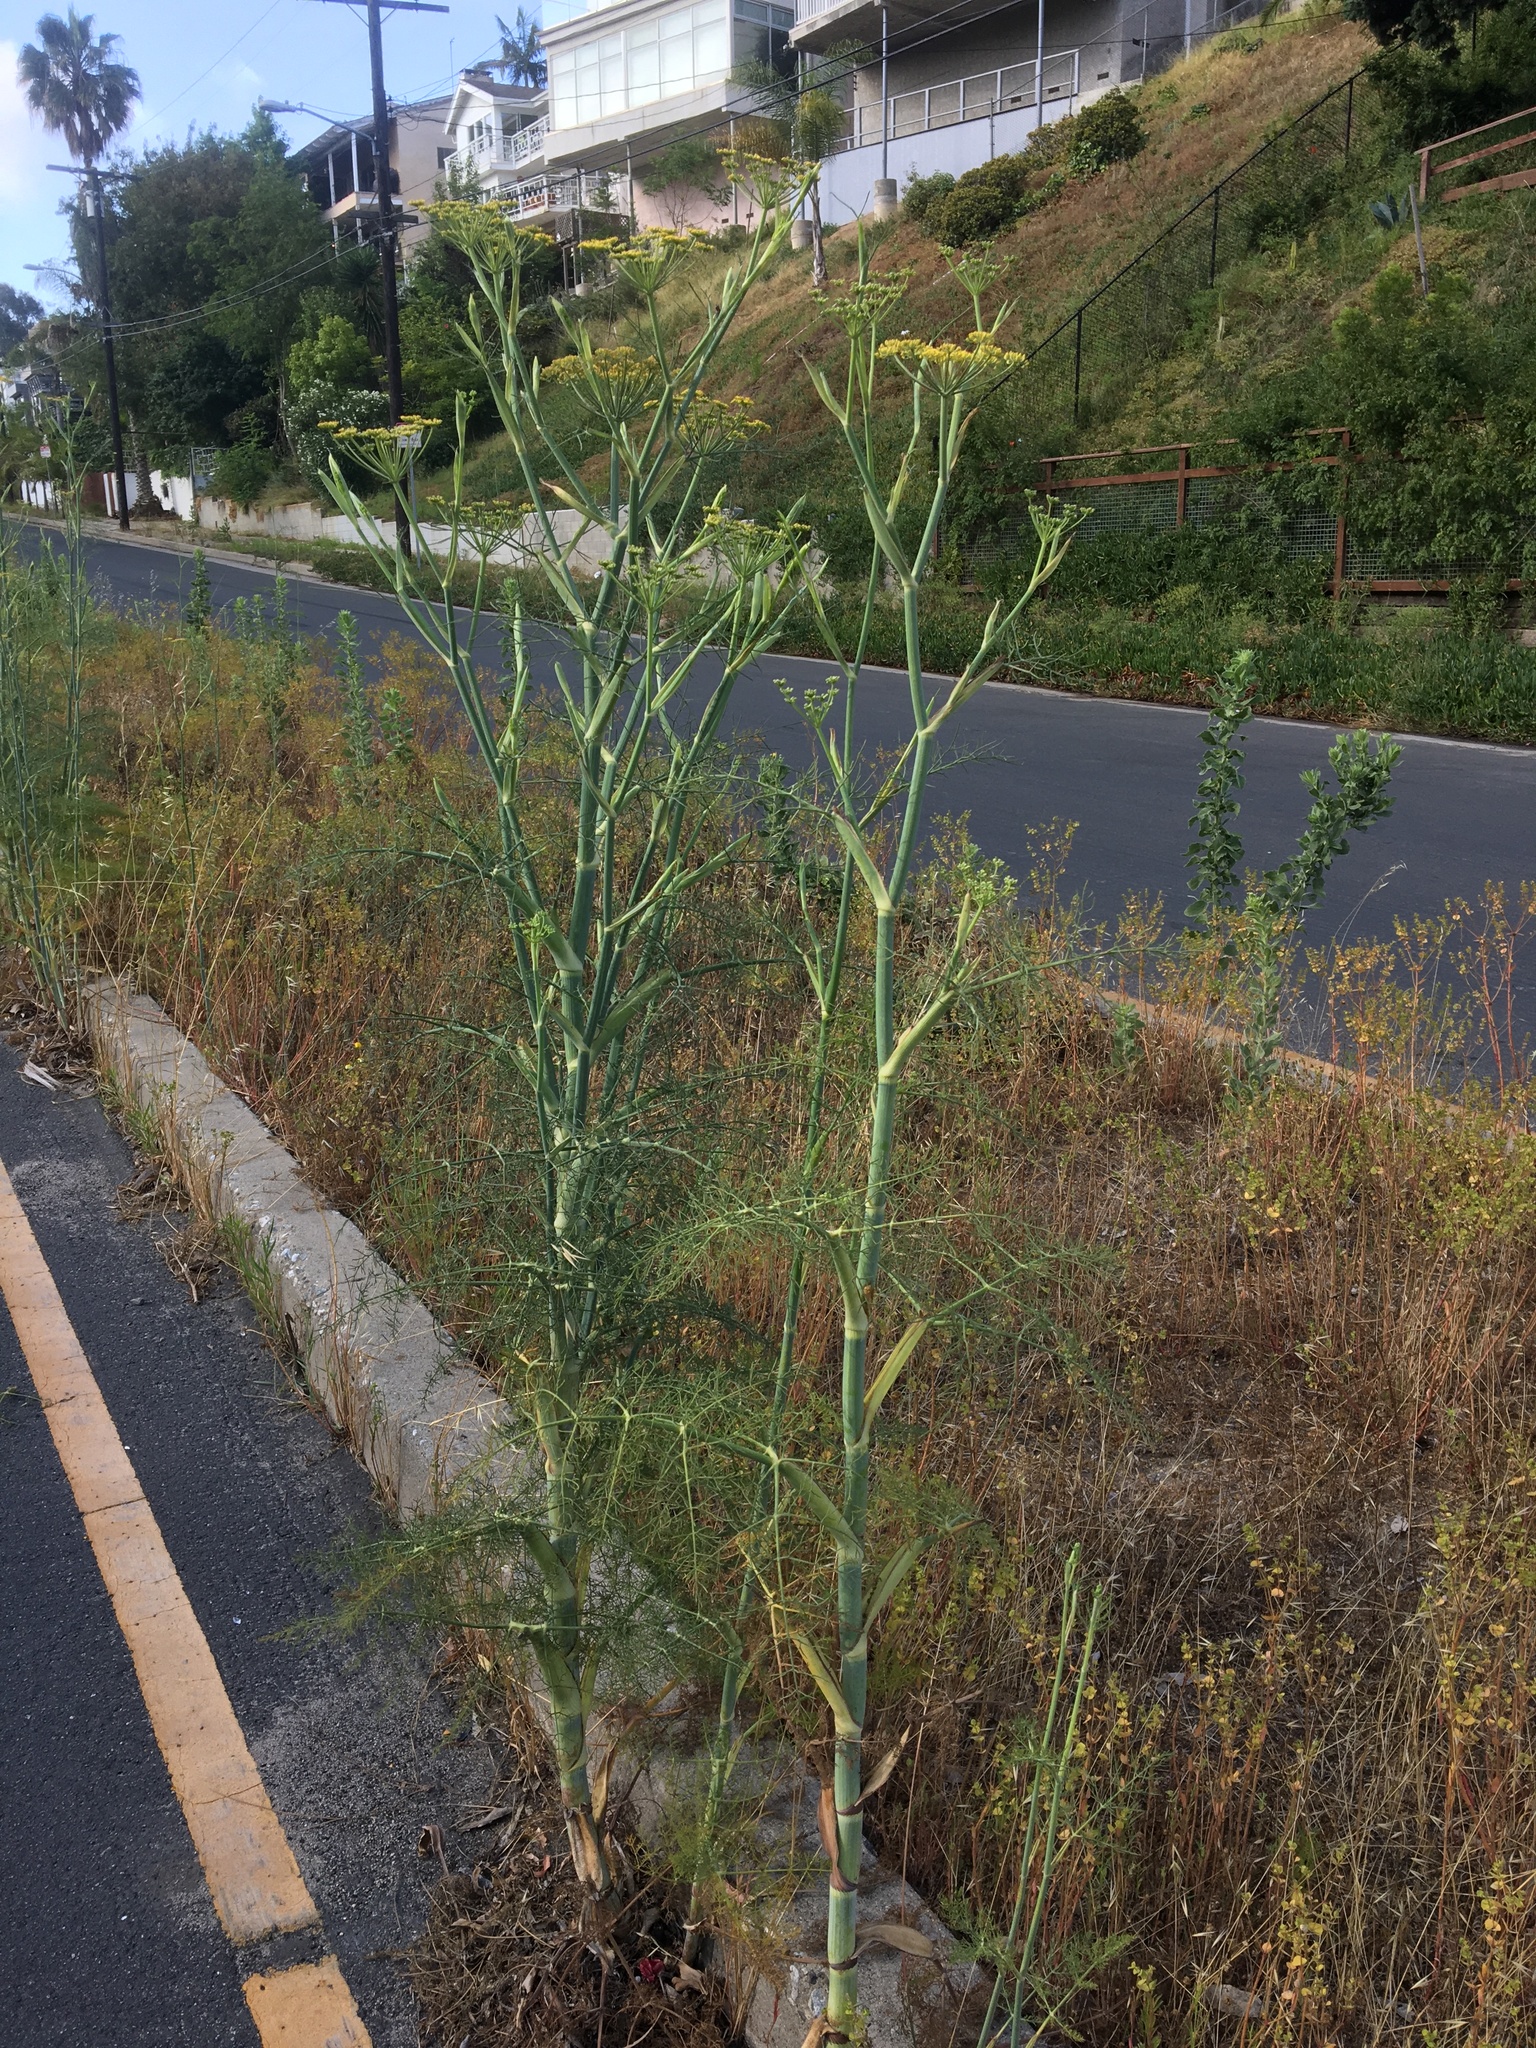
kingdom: Plantae
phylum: Tracheophyta
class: Magnoliopsida
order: Apiales
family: Apiaceae
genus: Foeniculum
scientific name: Foeniculum vulgare
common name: Fennel
